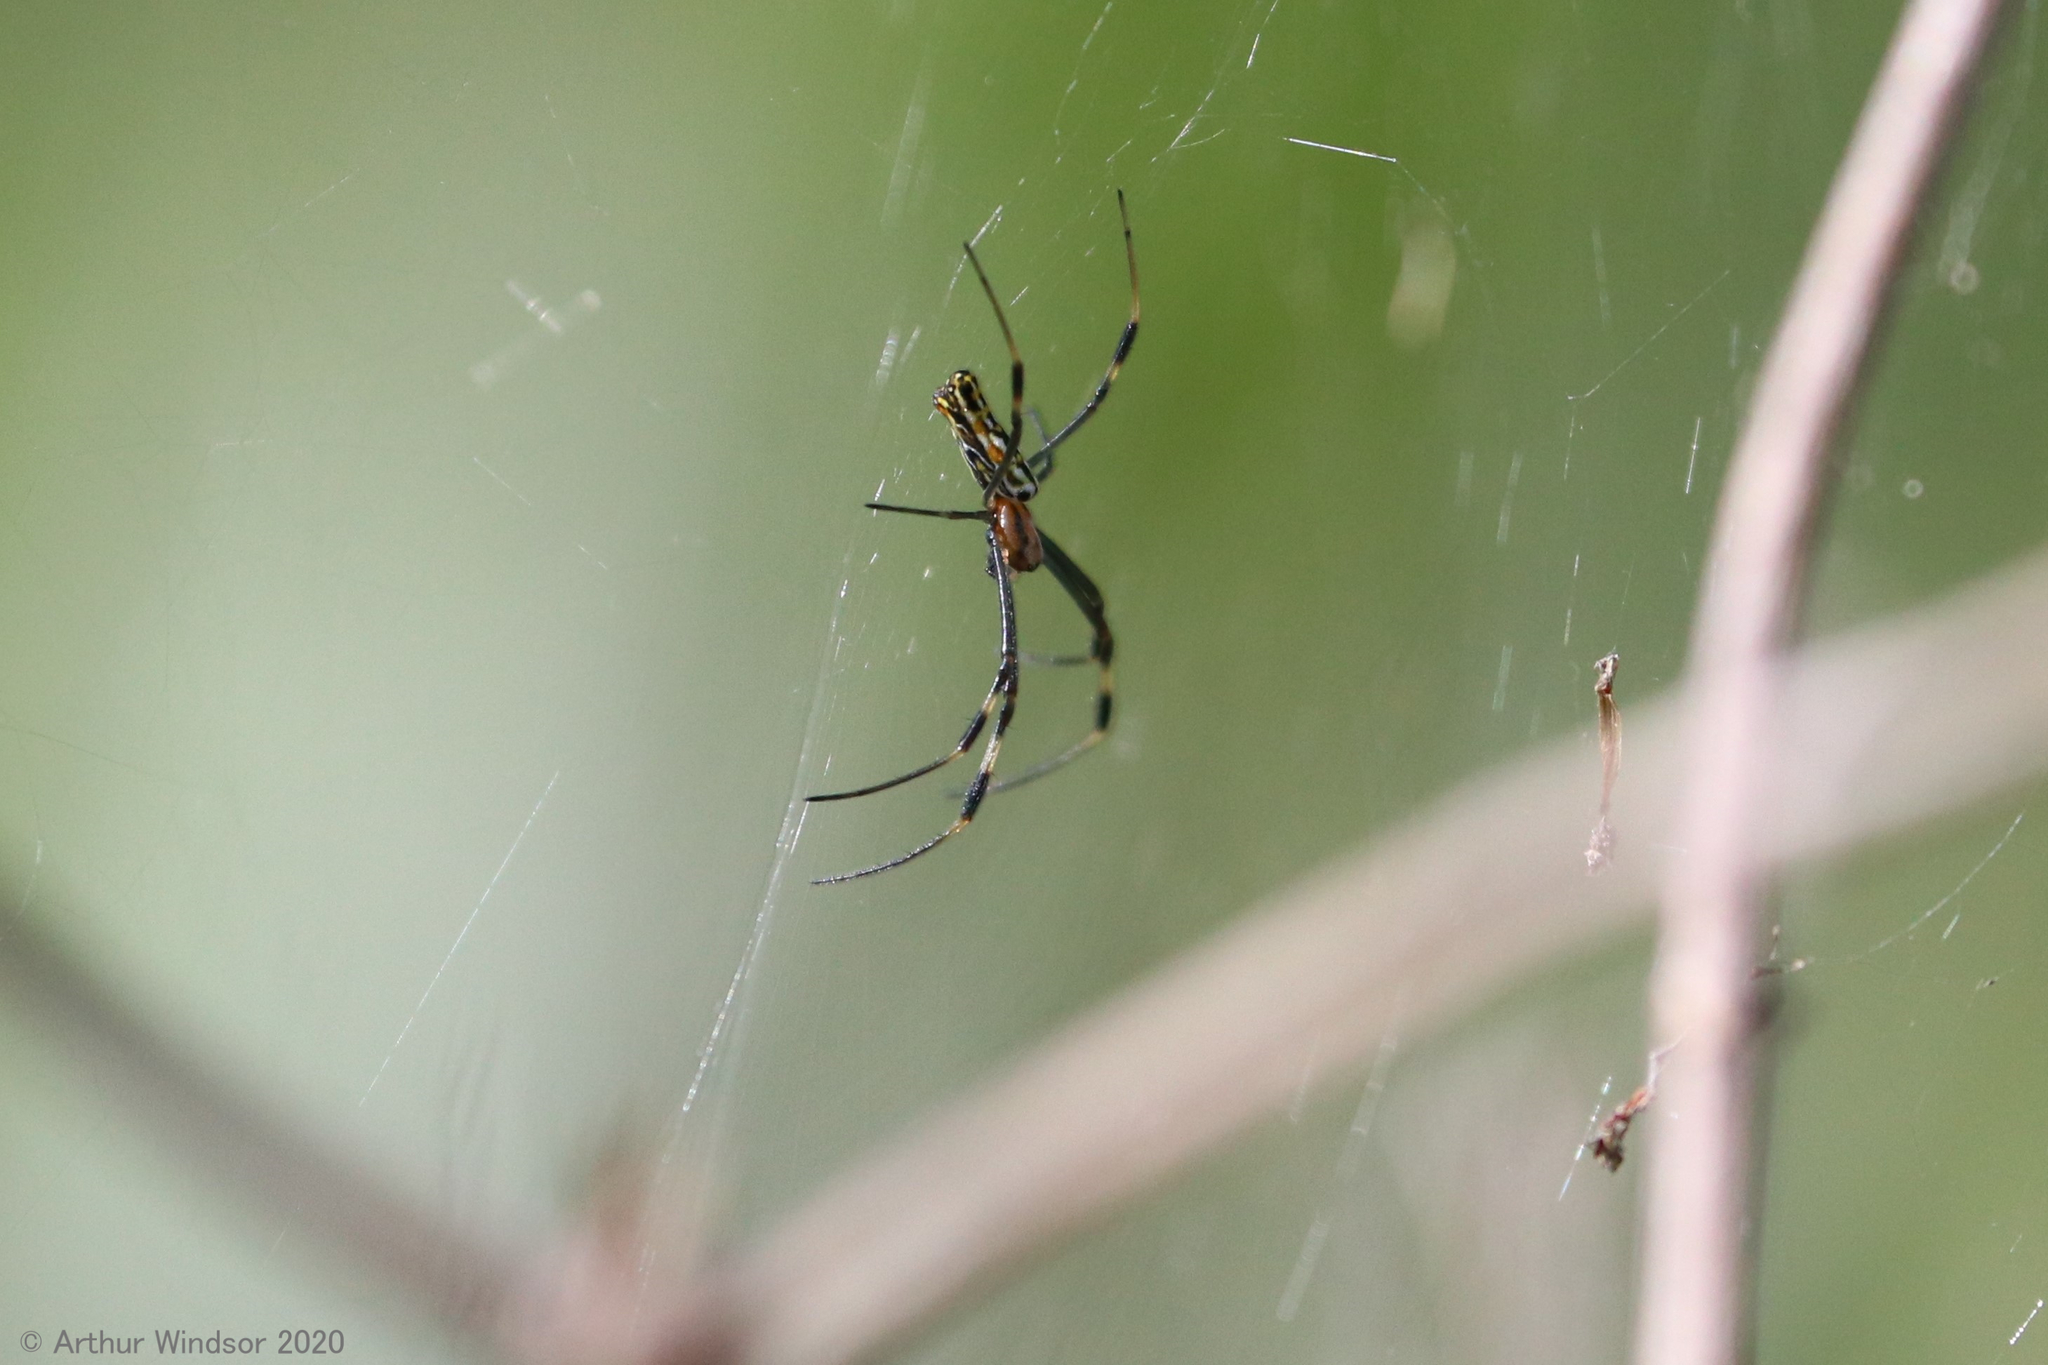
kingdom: Animalia
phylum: Arthropoda
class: Arachnida
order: Araneae
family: Araneidae
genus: Trichonephila
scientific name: Trichonephila clavipes
